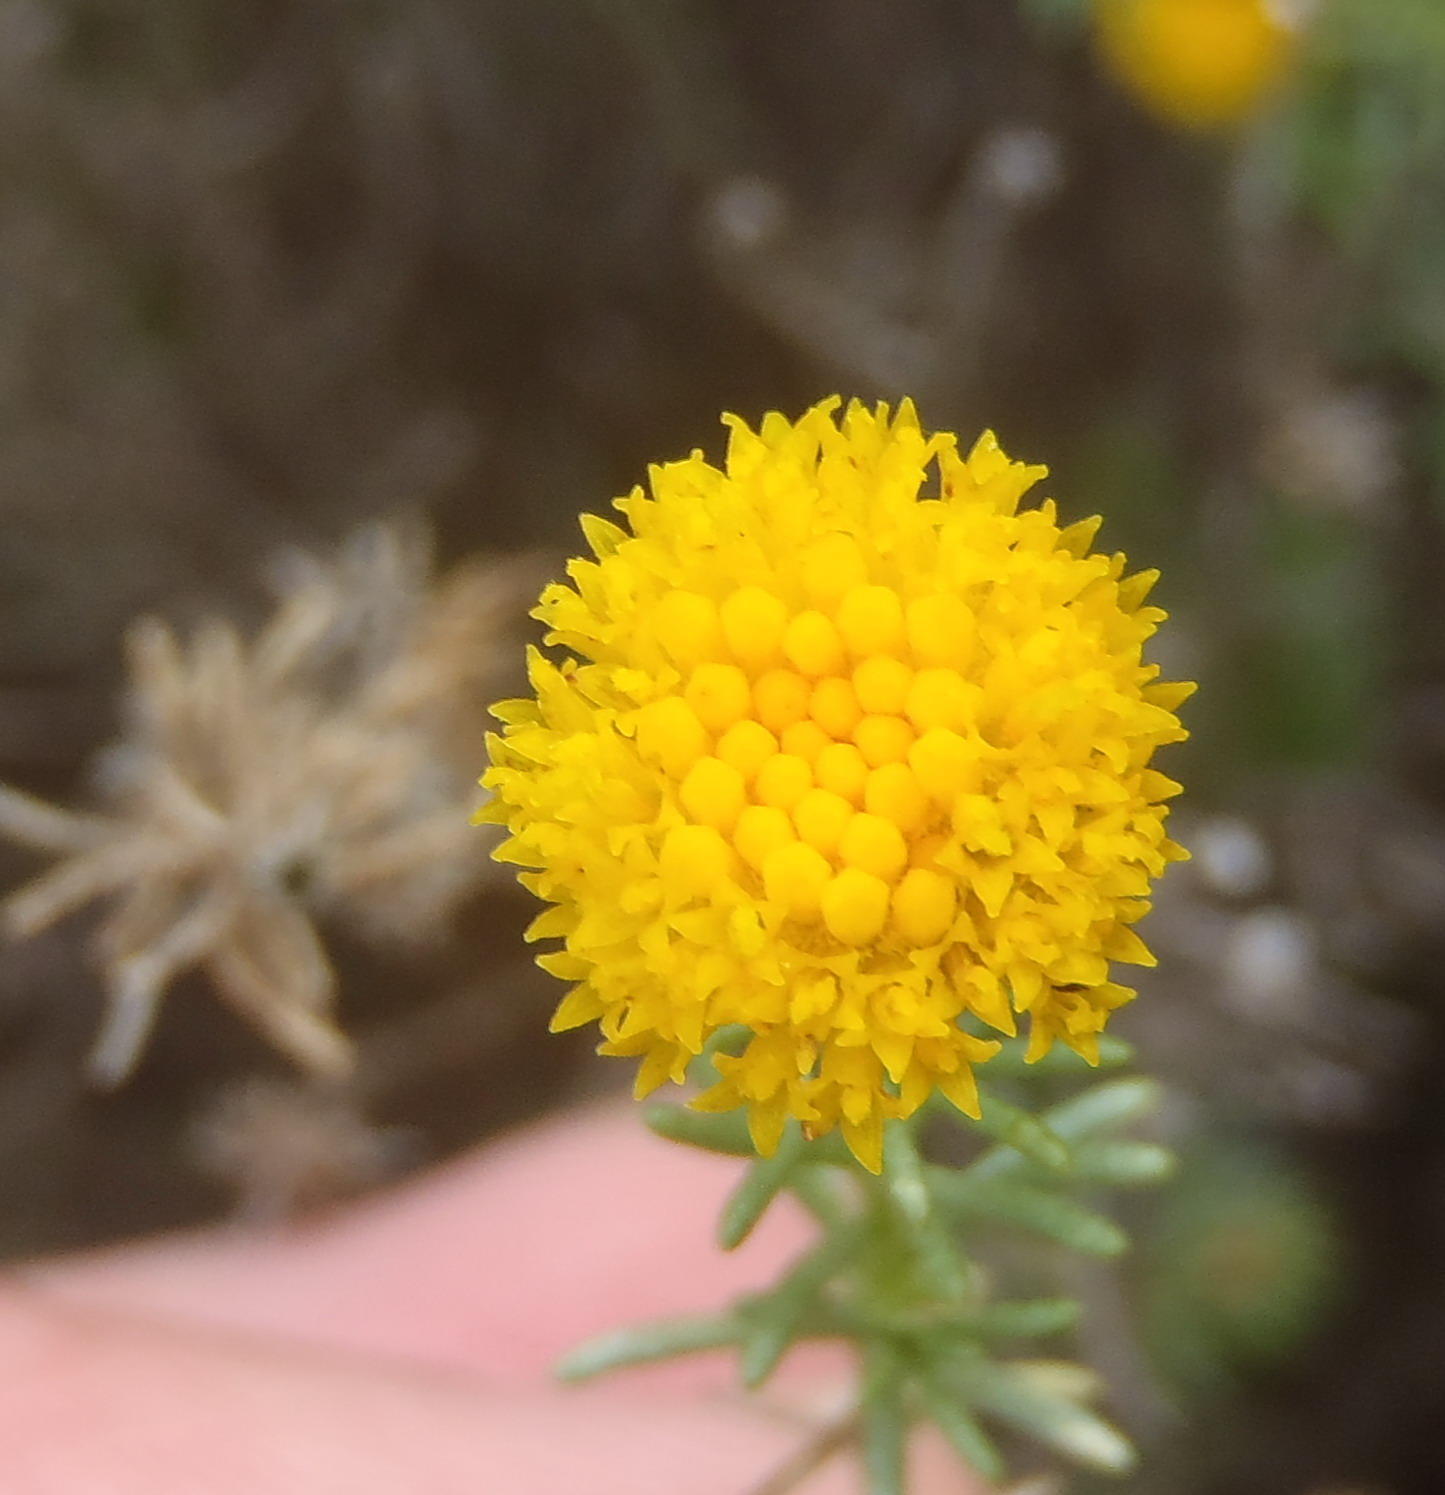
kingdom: Plantae
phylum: Tracheophyta
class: Magnoliopsida
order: Asterales
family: Asteraceae
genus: Chrysocoma
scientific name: Chrysocoma ciliata
